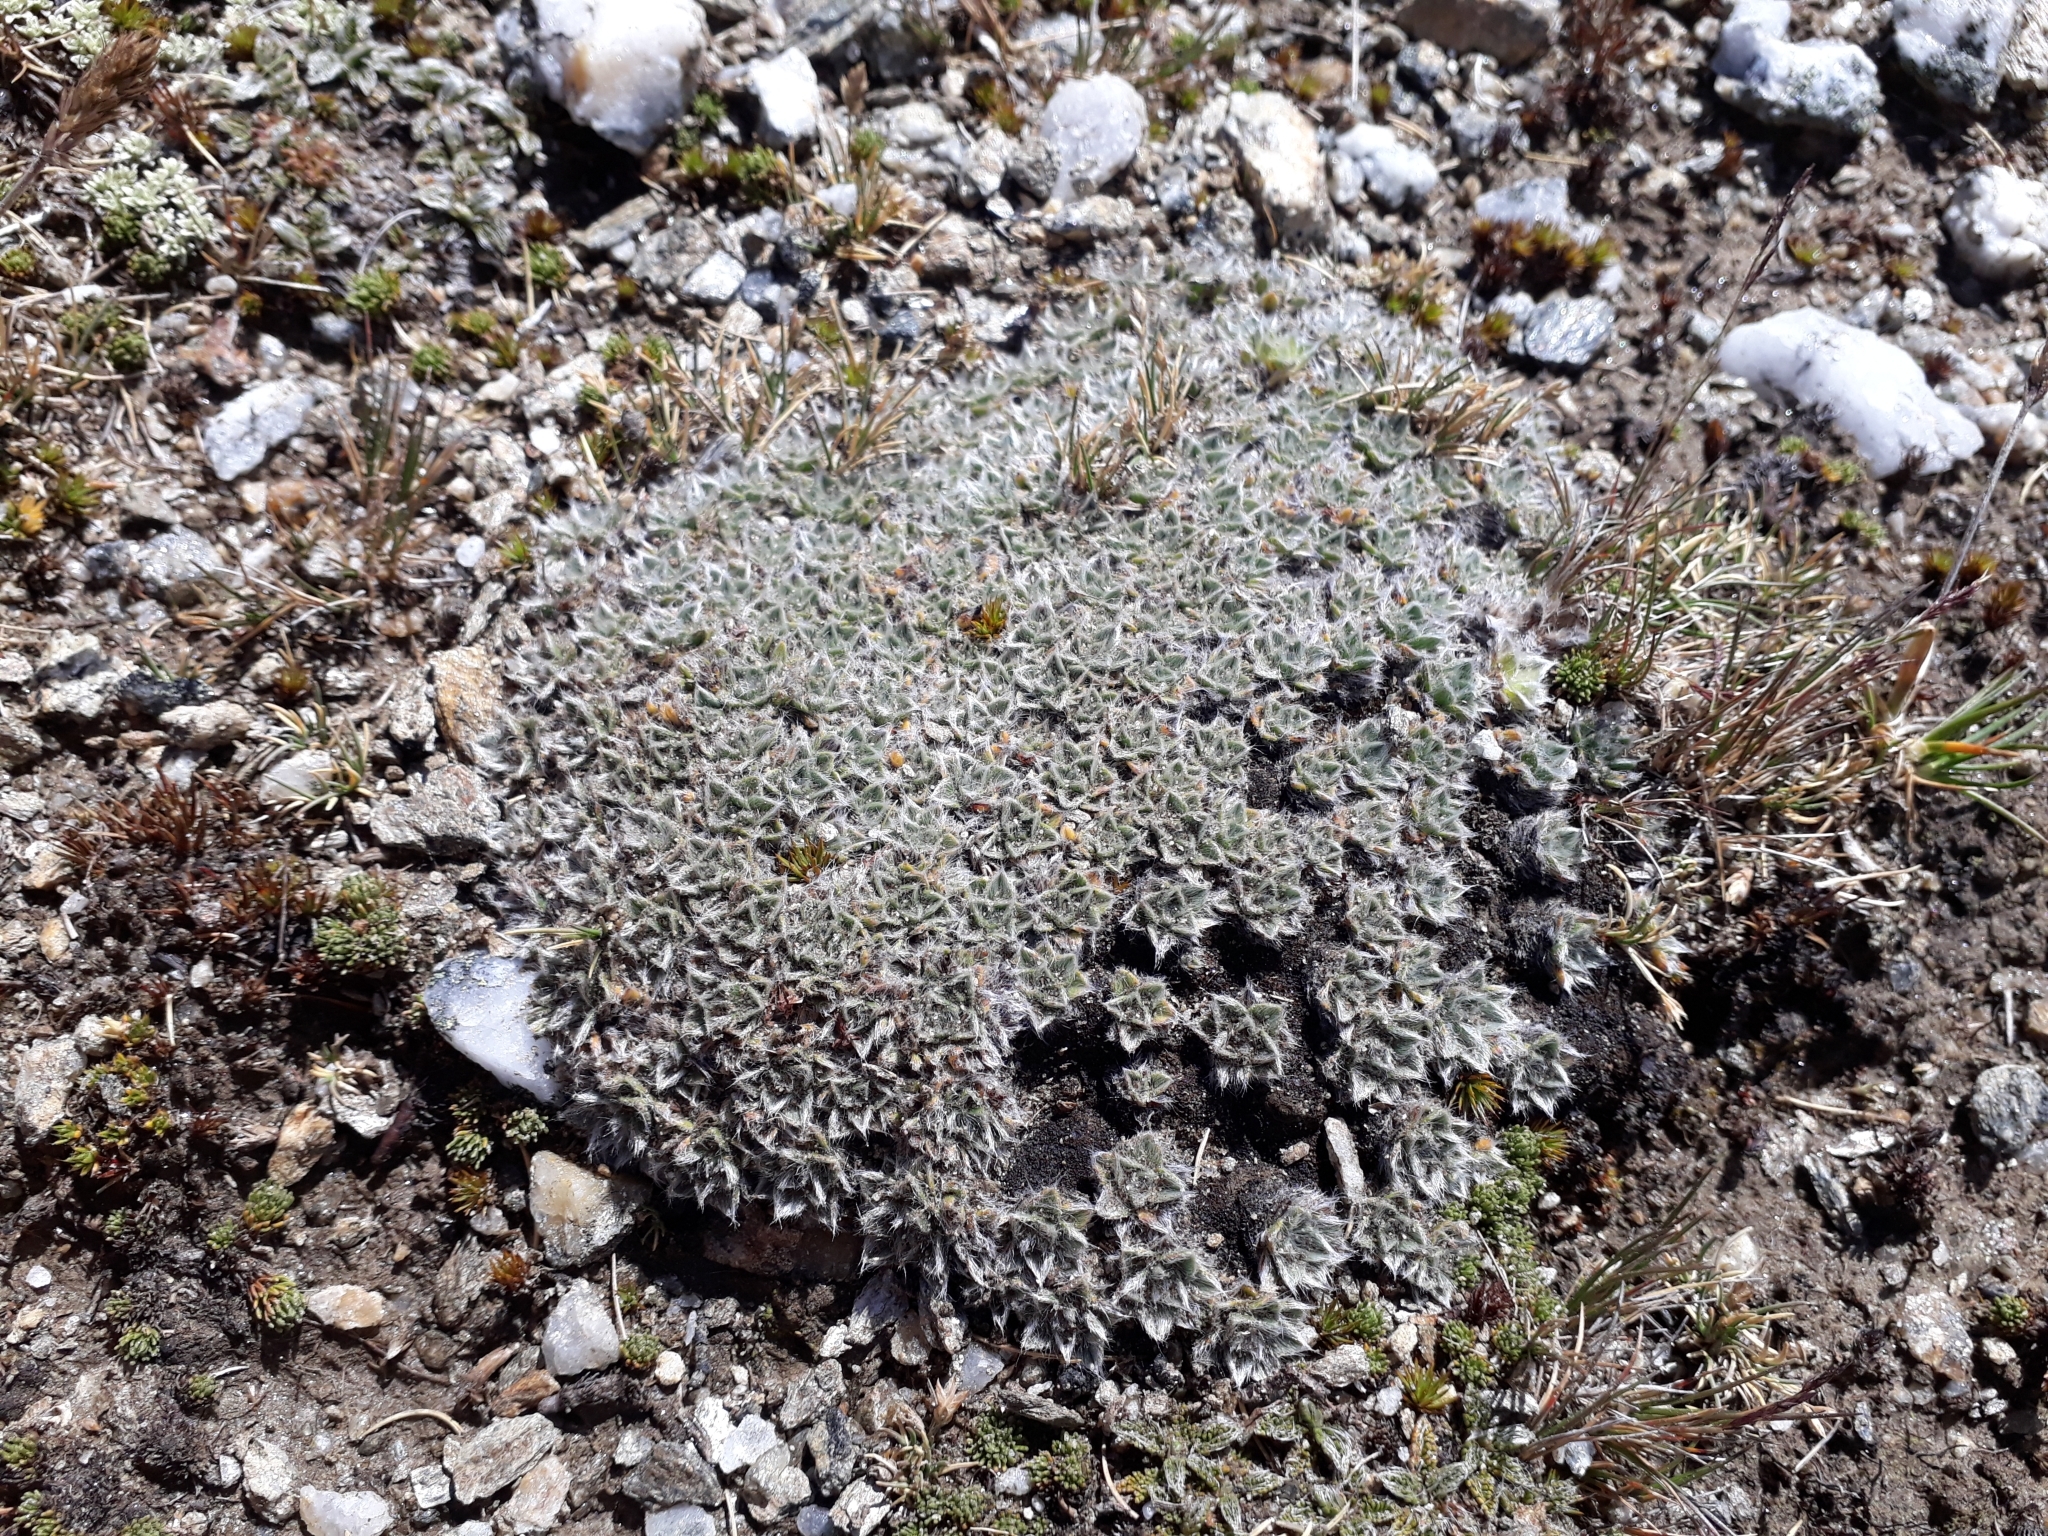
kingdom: Plantae
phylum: Tracheophyta
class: Magnoliopsida
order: Boraginales
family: Boraginaceae
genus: Myosotis
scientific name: Myosotis pulvinaris
